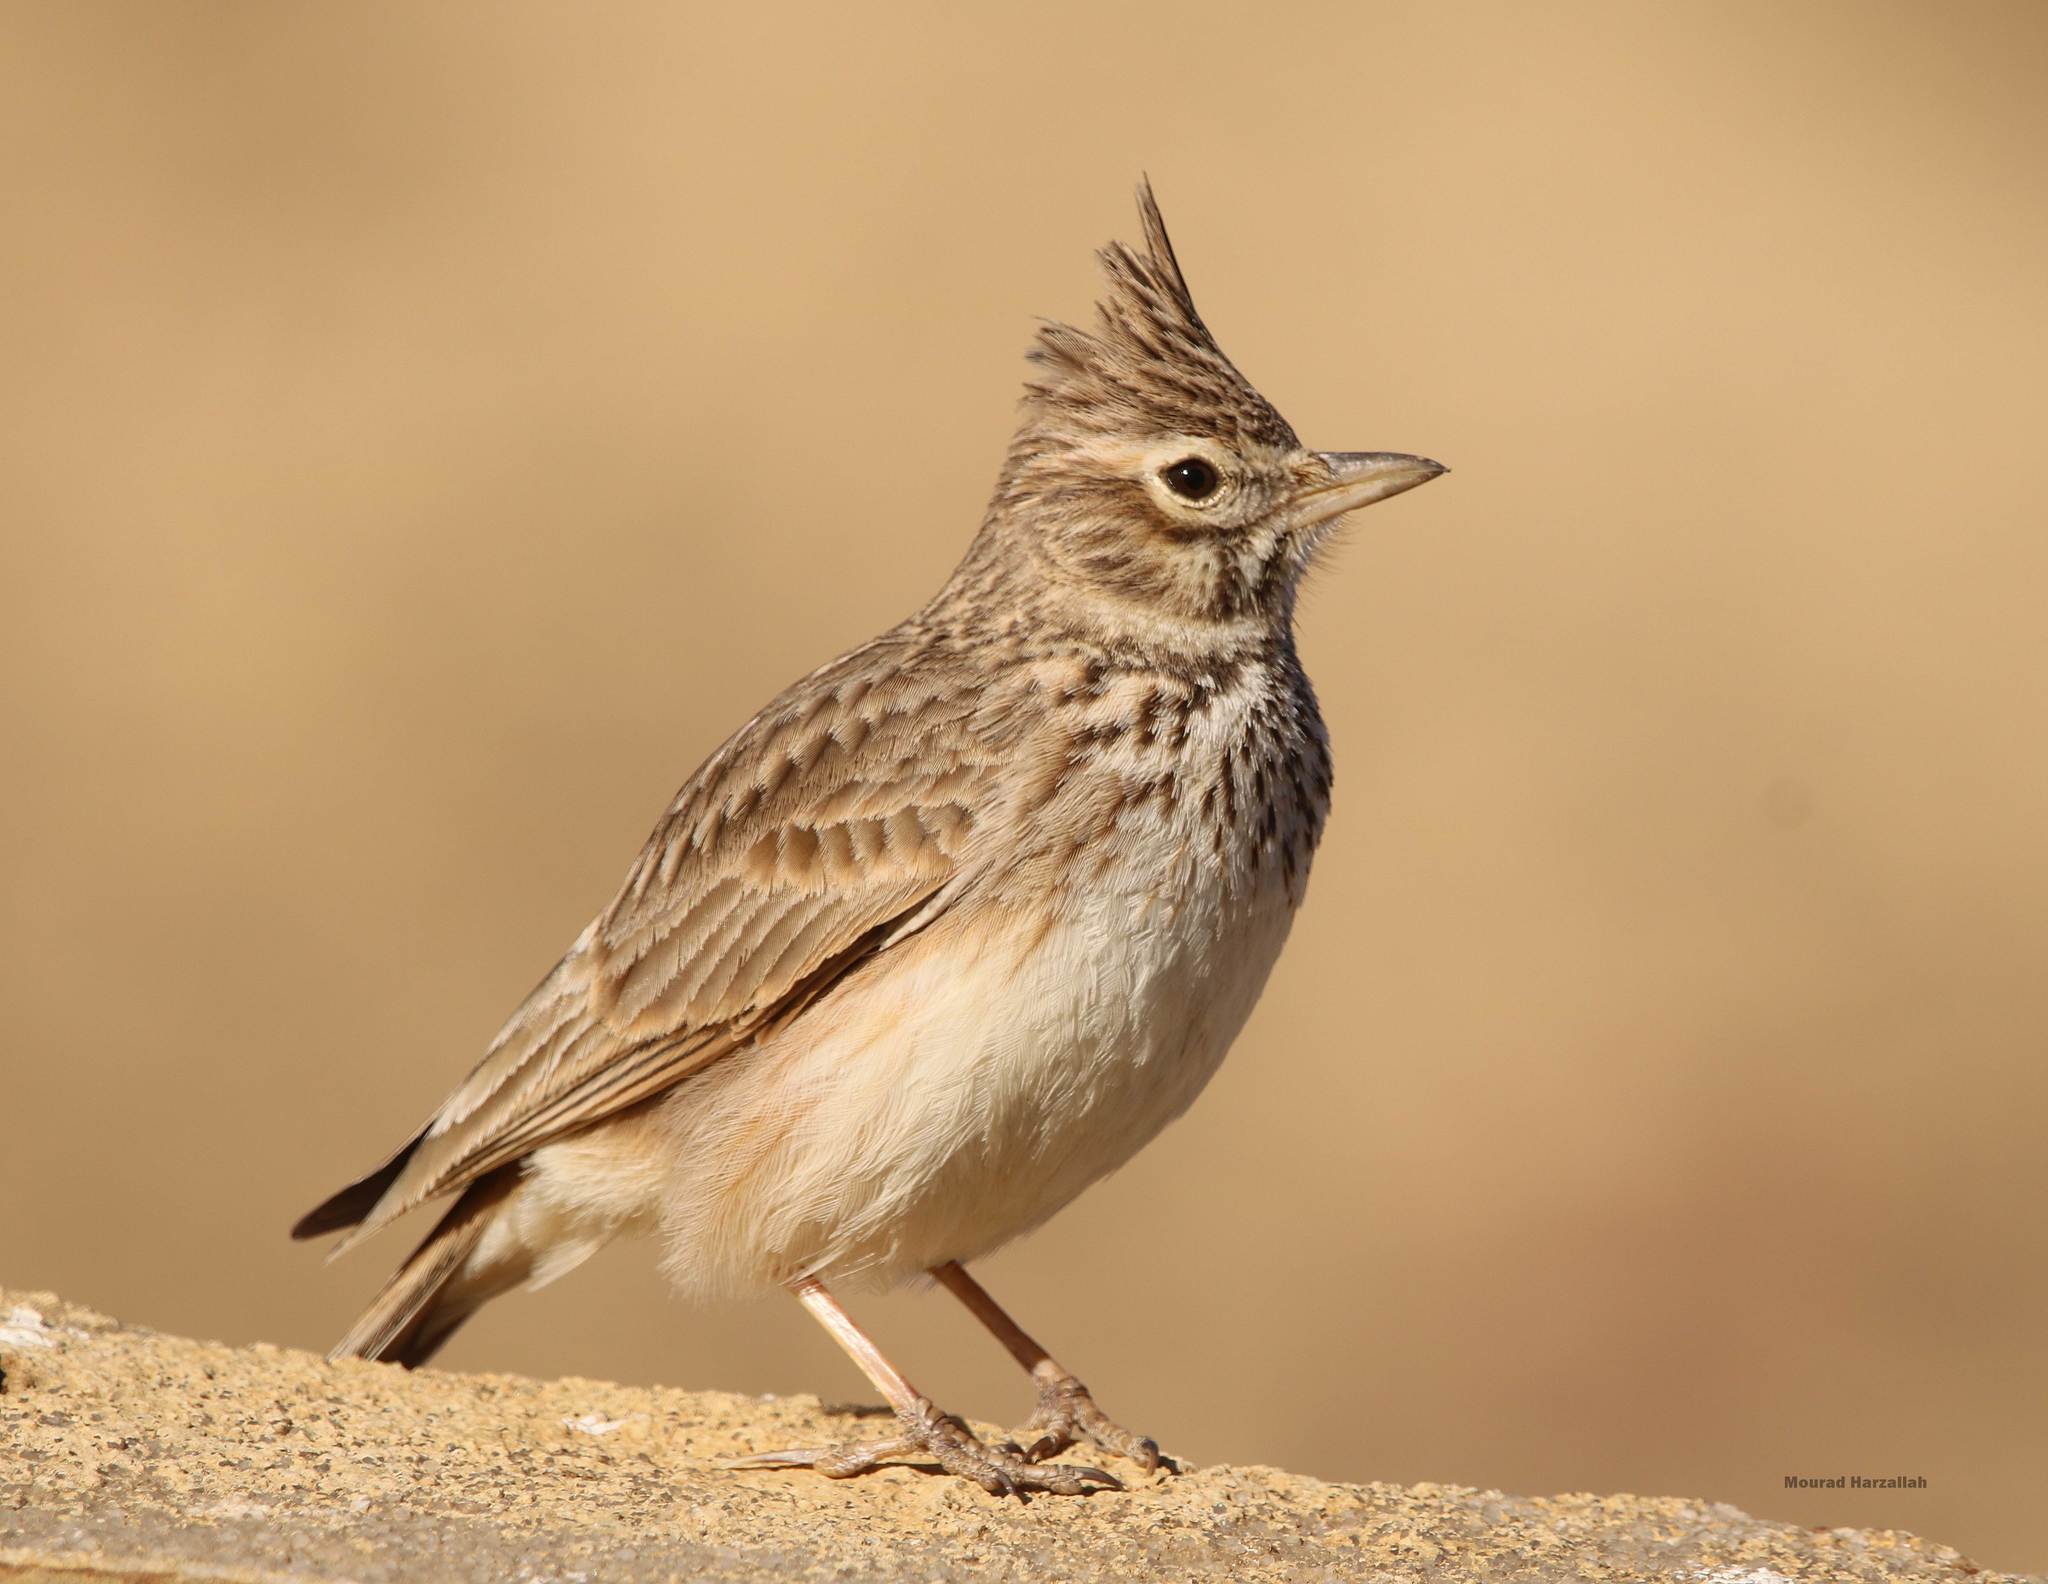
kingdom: Animalia
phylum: Chordata
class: Aves
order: Passeriformes
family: Alaudidae
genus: Galerida
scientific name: Galerida theklae
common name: Thekla lark
